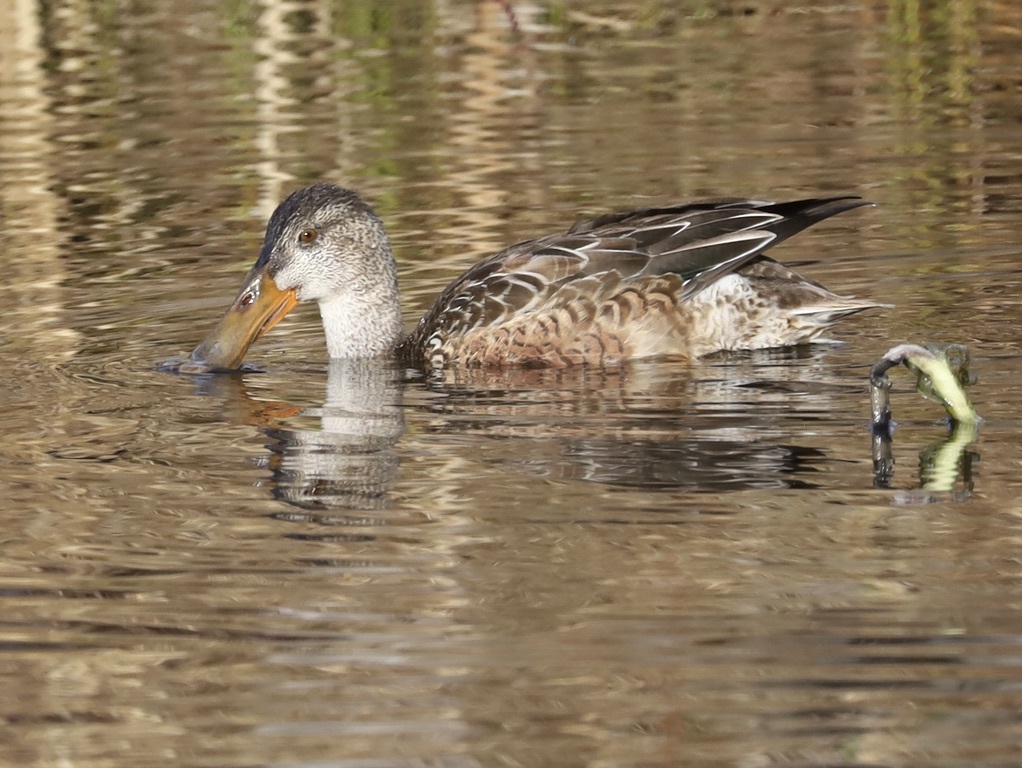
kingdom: Animalia
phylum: Chordata
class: Aves
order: Anseriformes
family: Anatidae
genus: Spatula
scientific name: Spatula clypeata
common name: Northern shoveler
